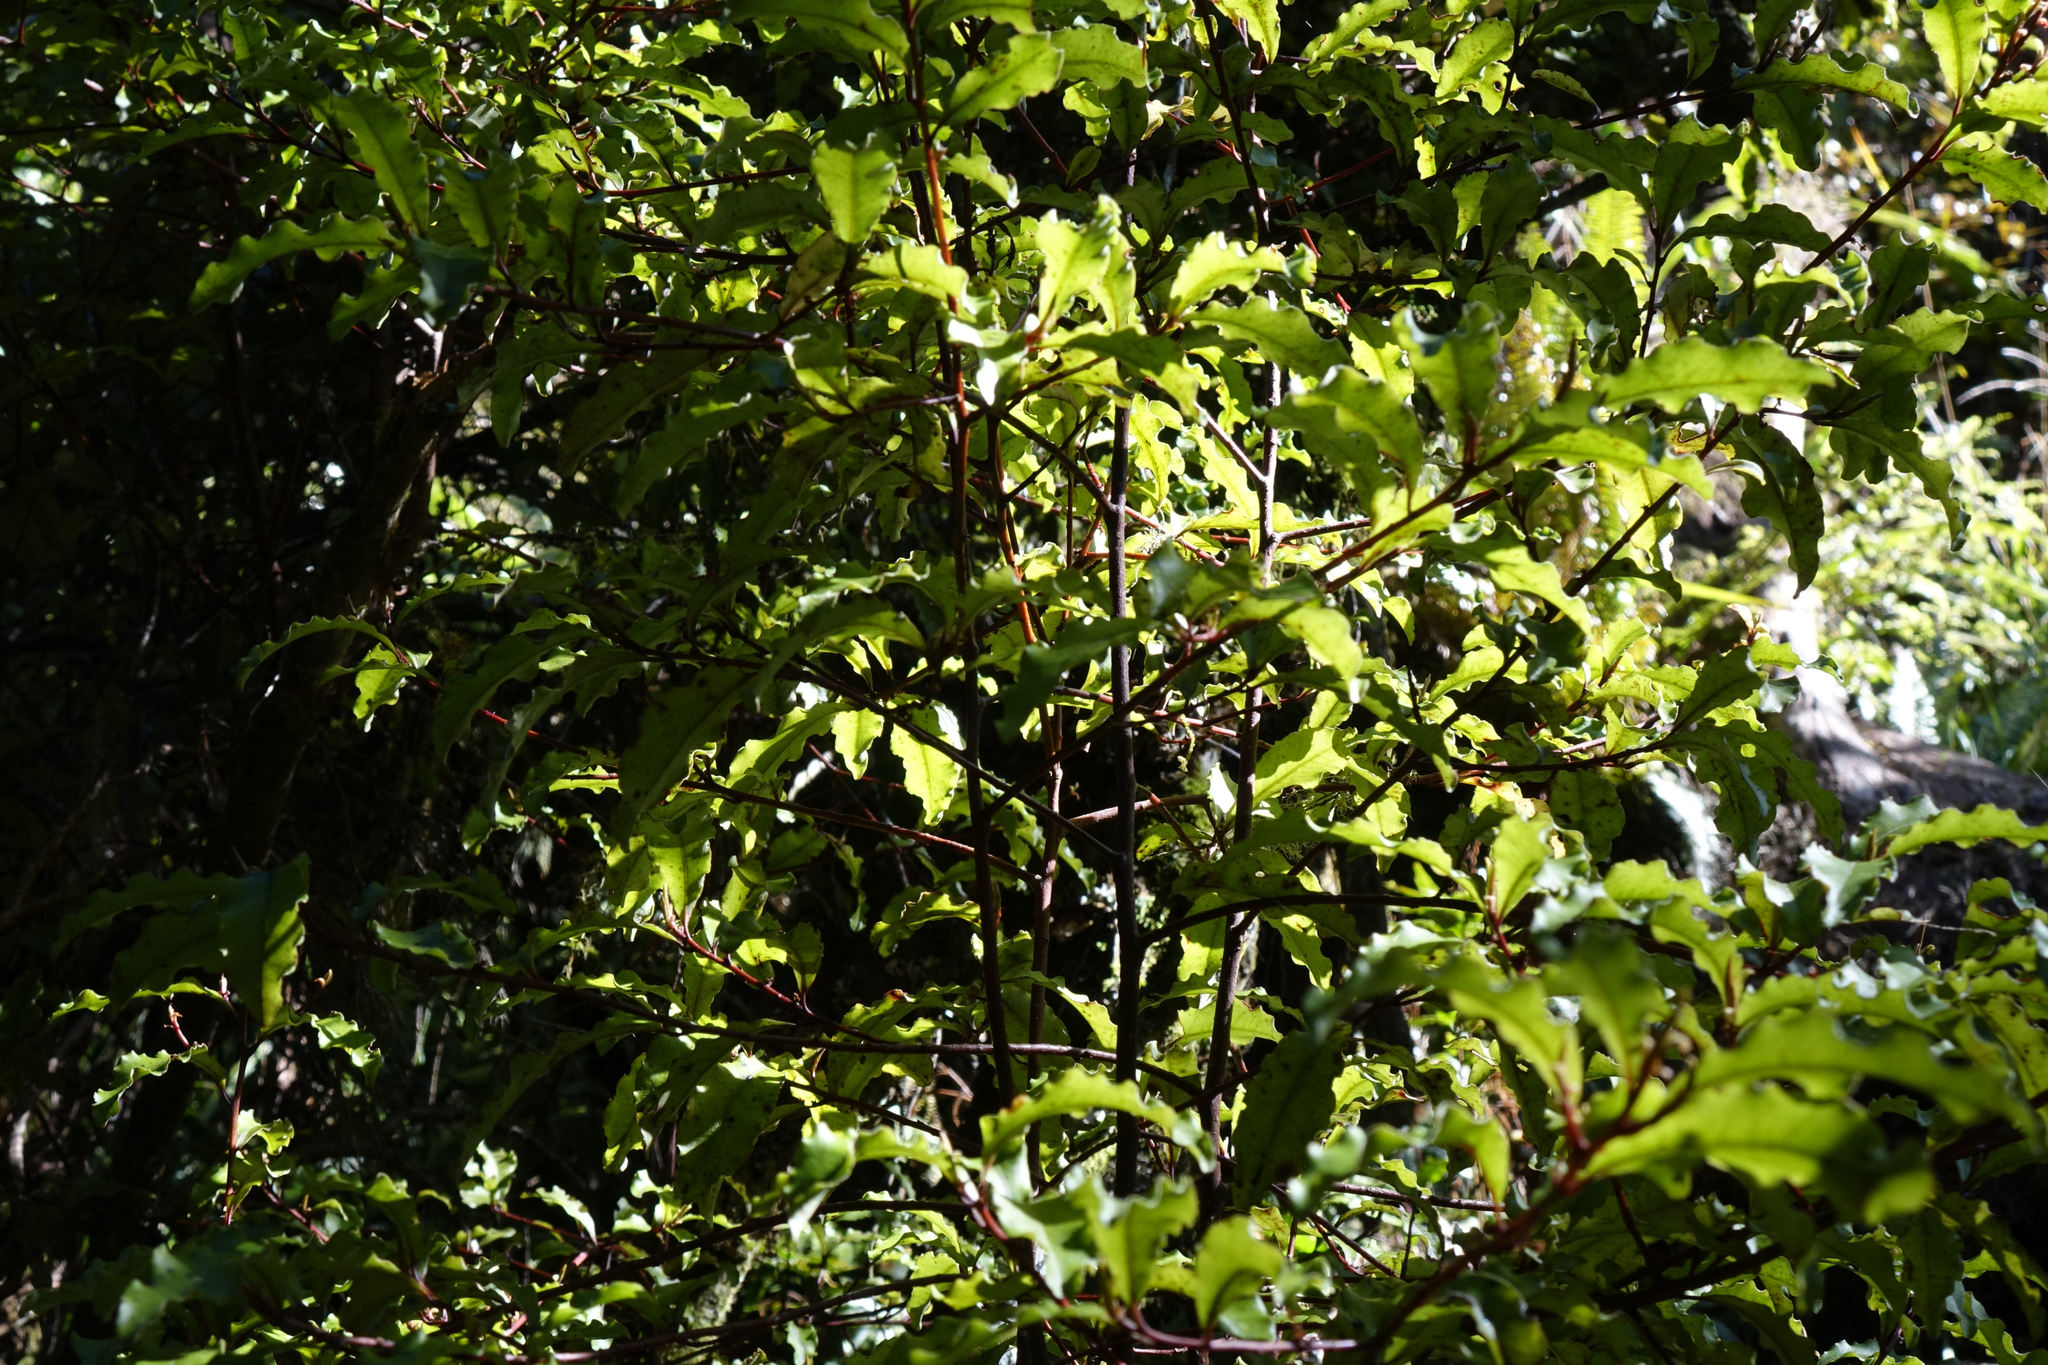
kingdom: Plantae
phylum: Tracheophyta
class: Magnoliopsida
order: Ericales
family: Primulaceae
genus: Myrsine
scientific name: Myrsine australis
